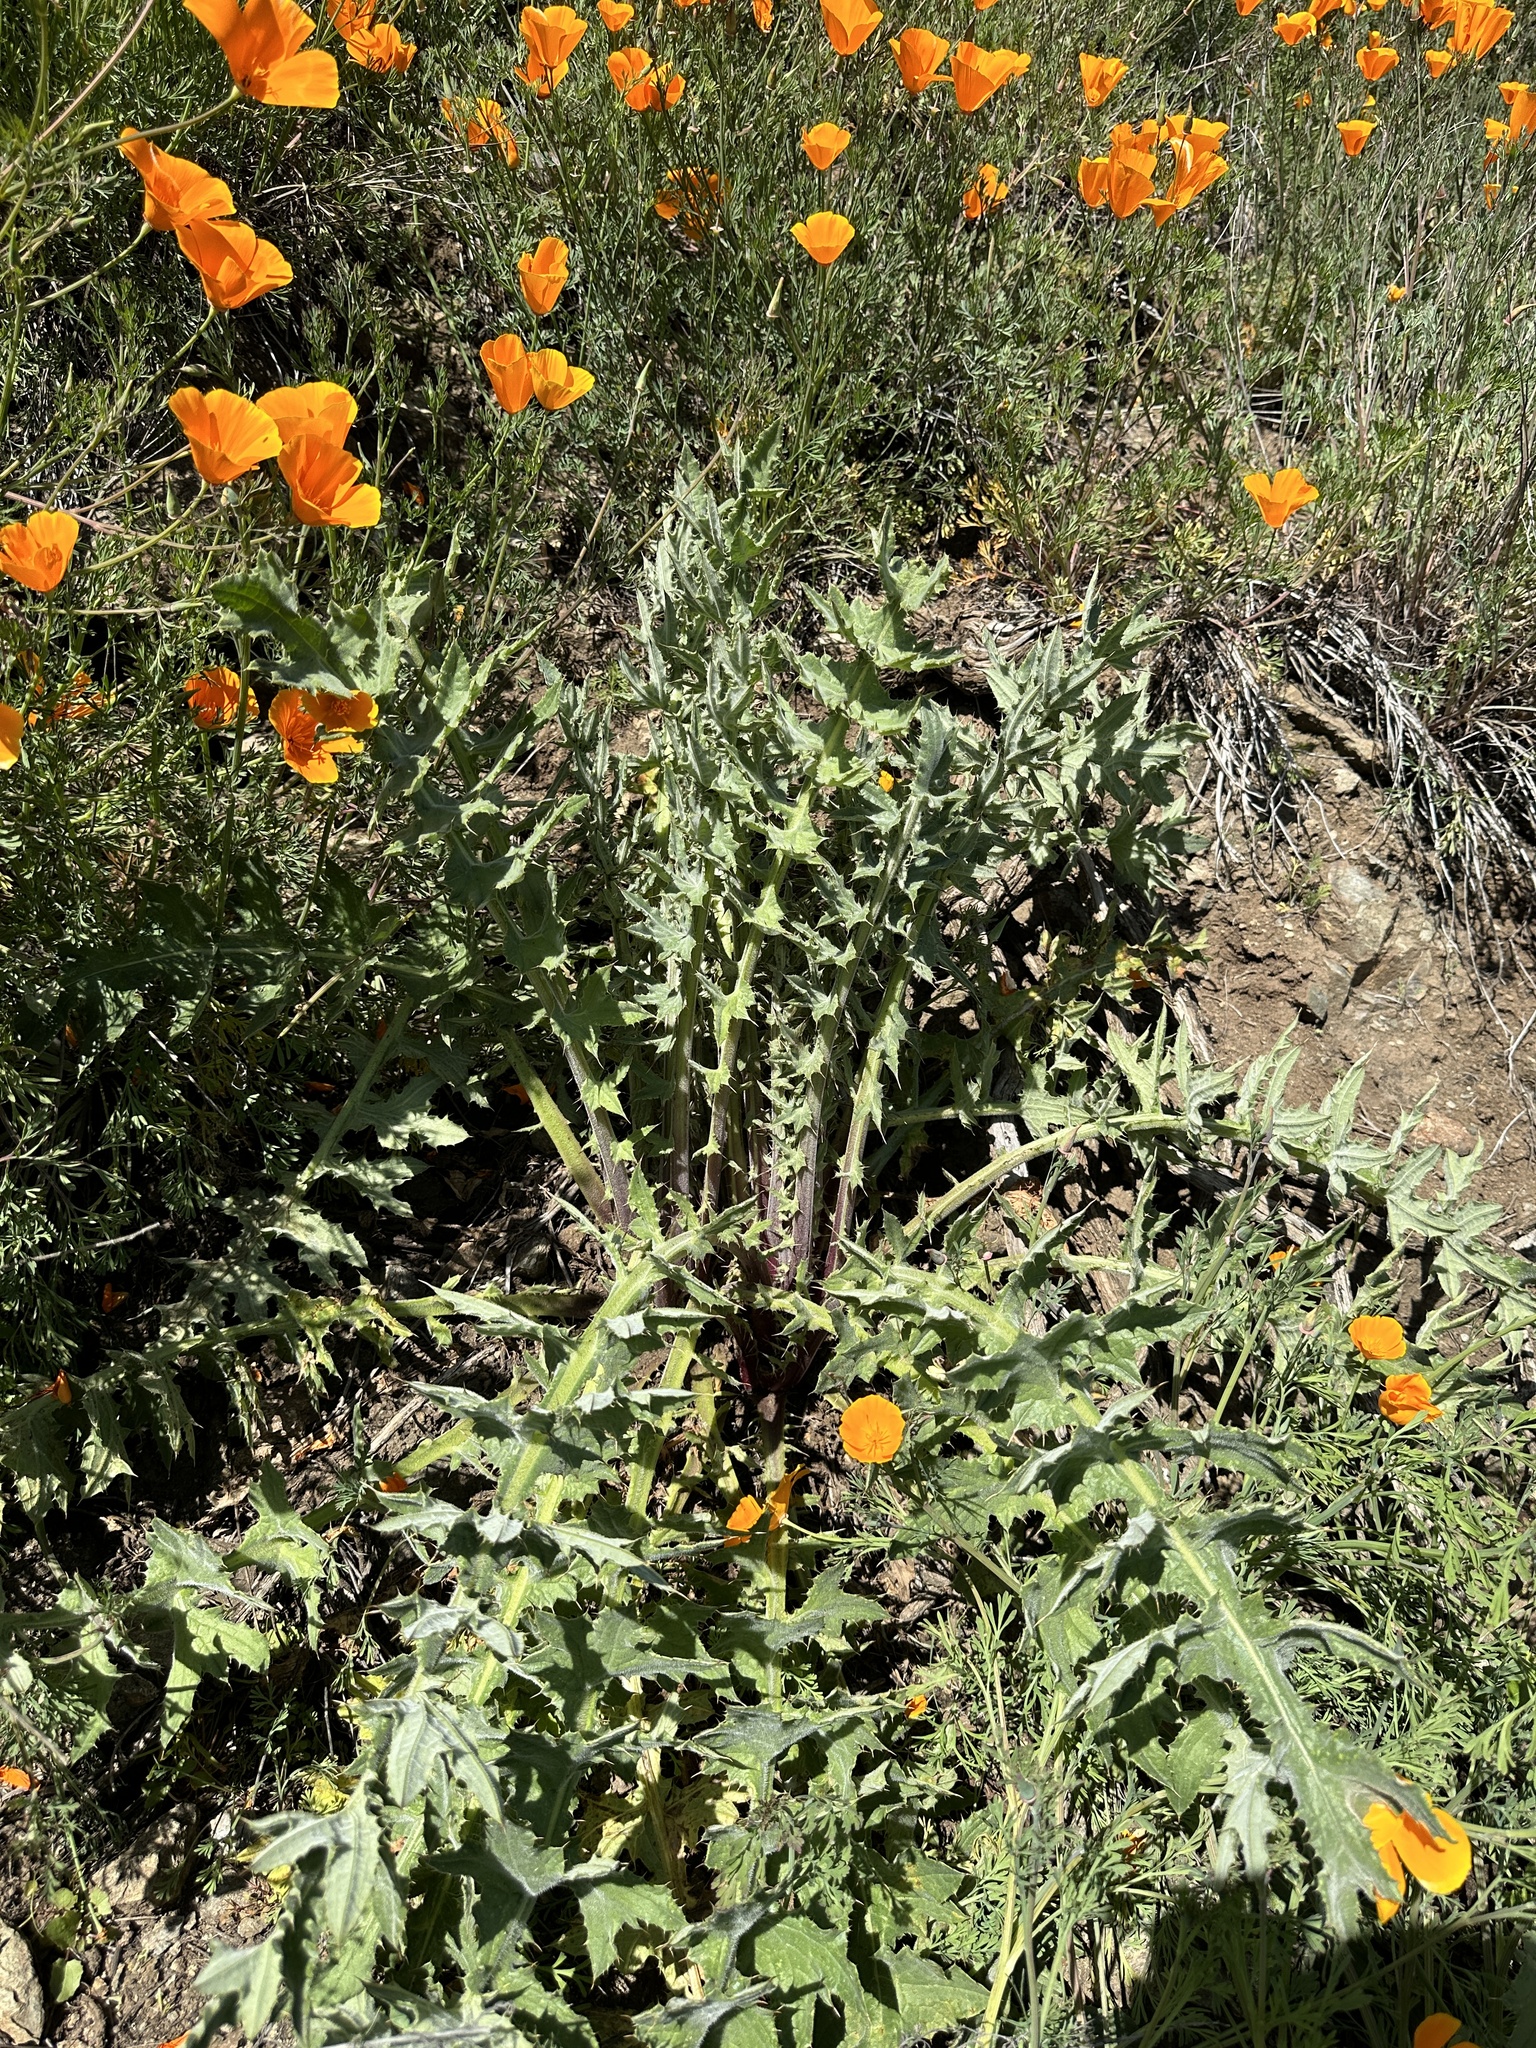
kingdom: Plantae
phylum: Tracheophyta
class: Magnoliopsida
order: Asterales
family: Asteraceae
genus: Cirsium
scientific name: Cirsium fontinale
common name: Fountain thistle
